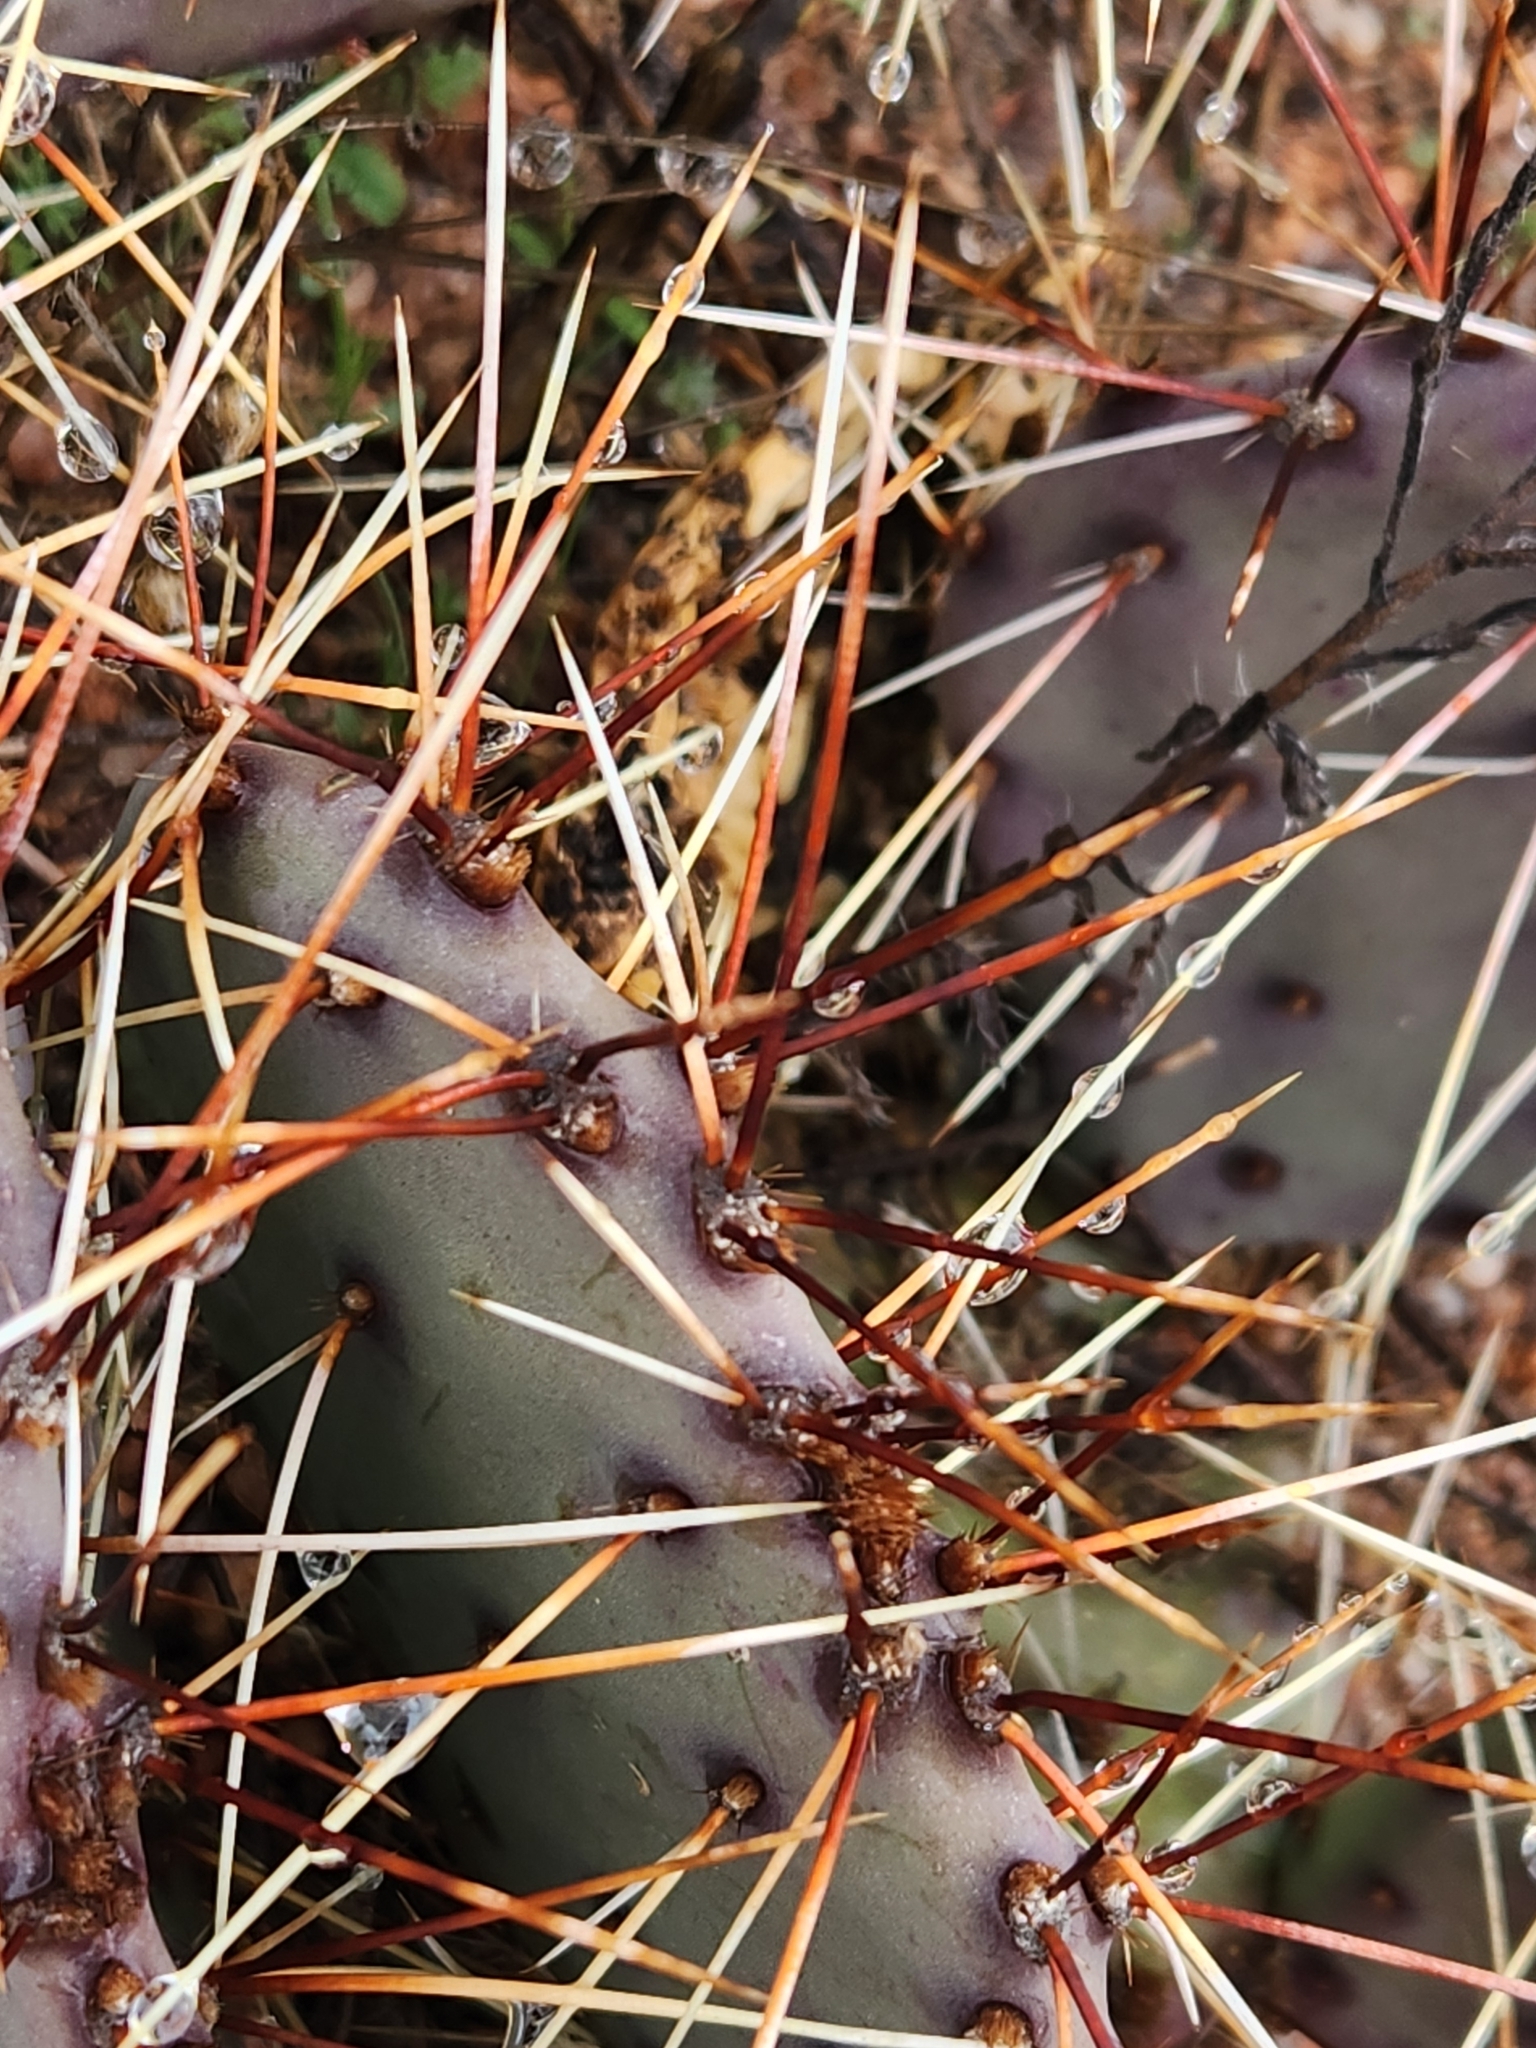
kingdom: Plantae
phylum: Tracheophyta
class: Magnoliopsida
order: Caryophyllales
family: Cactaceae
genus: Opuntia
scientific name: Opuntia phaeacantha
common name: New mexico prickly-pear
